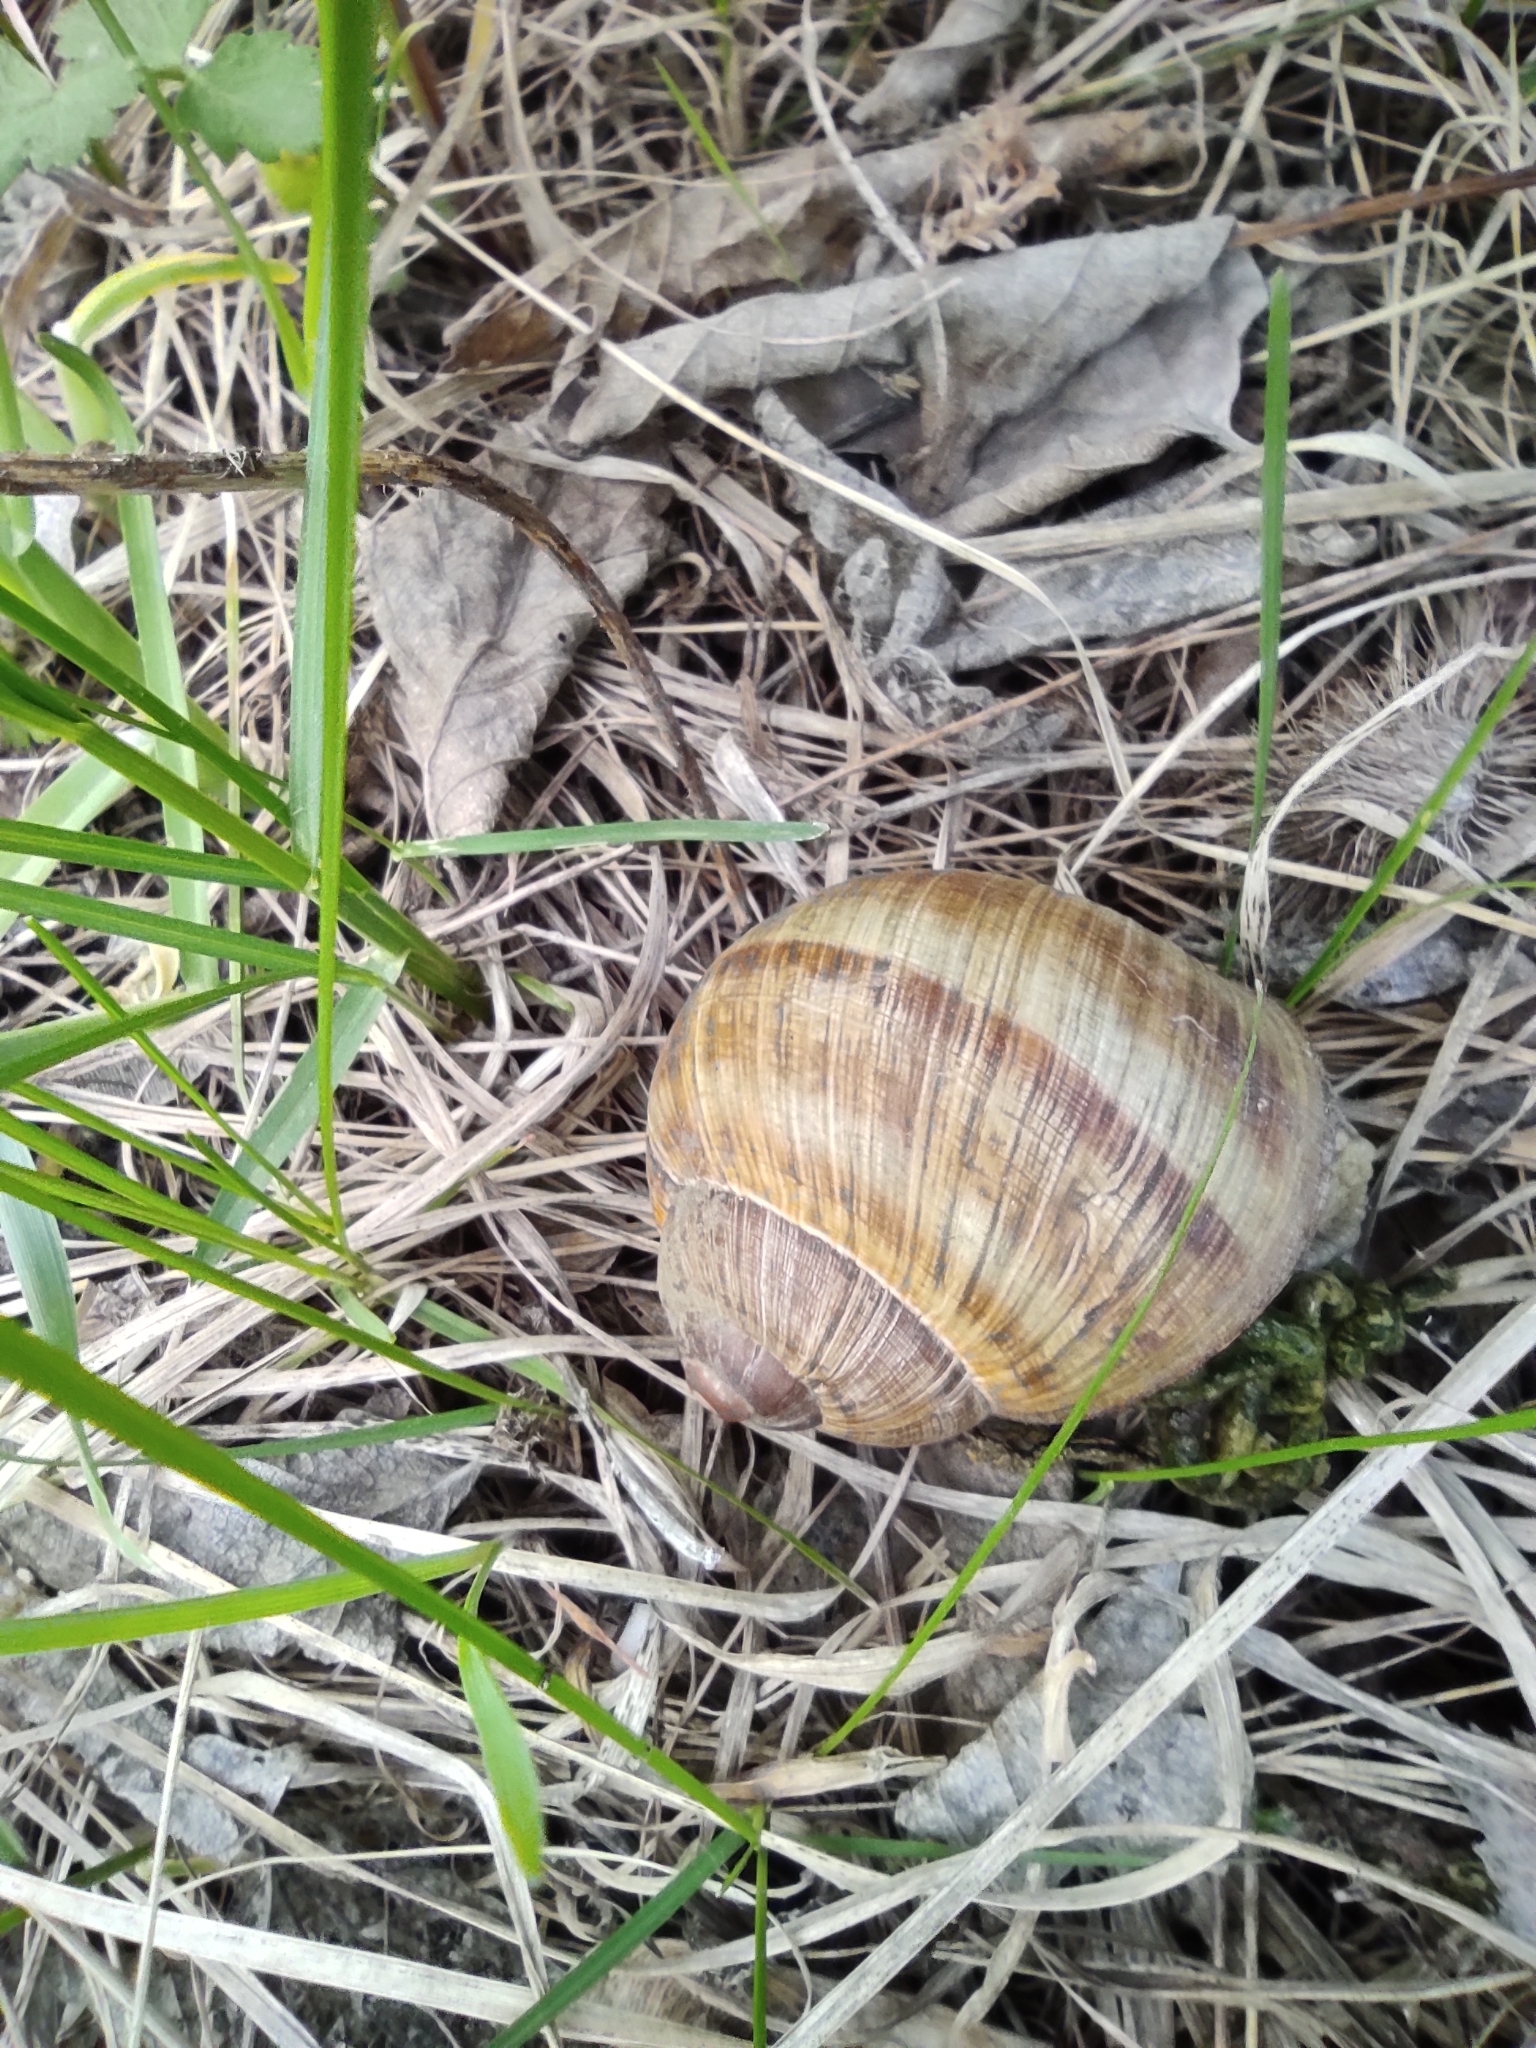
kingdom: Animalia
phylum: Mollusca
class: Gastropoda
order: Stylommatophora
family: Helicidae
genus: Helix
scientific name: Helix pomatia
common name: Roman snail
